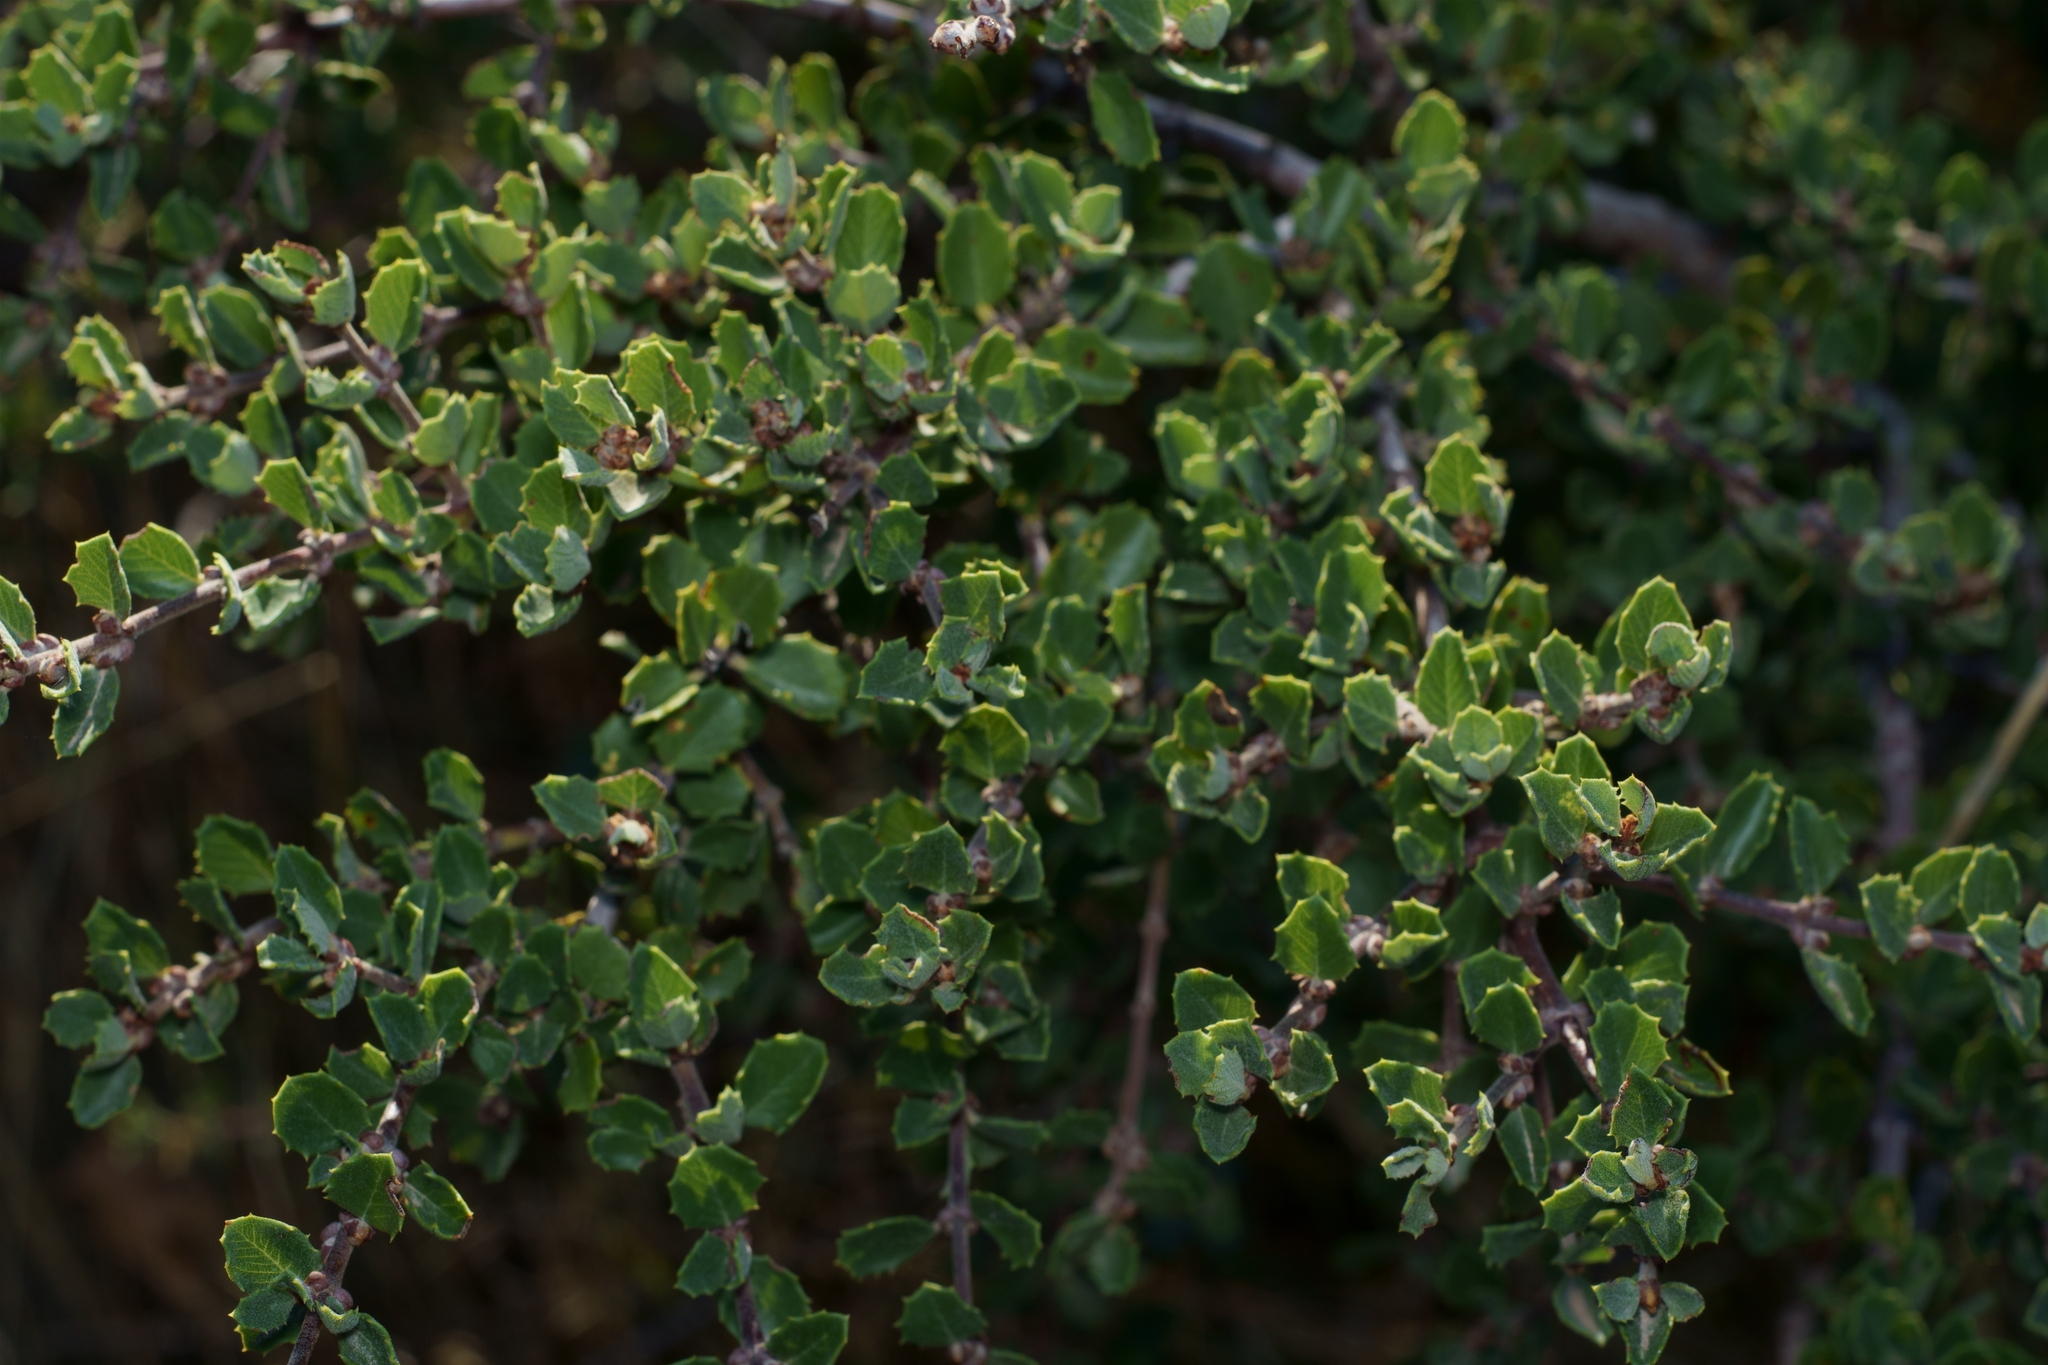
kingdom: Plantae
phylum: Tracheophyta
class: Magnoliopsida
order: Rosales
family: Rhamnaceae
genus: Ceanothus
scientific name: Ceanothus perplexans
